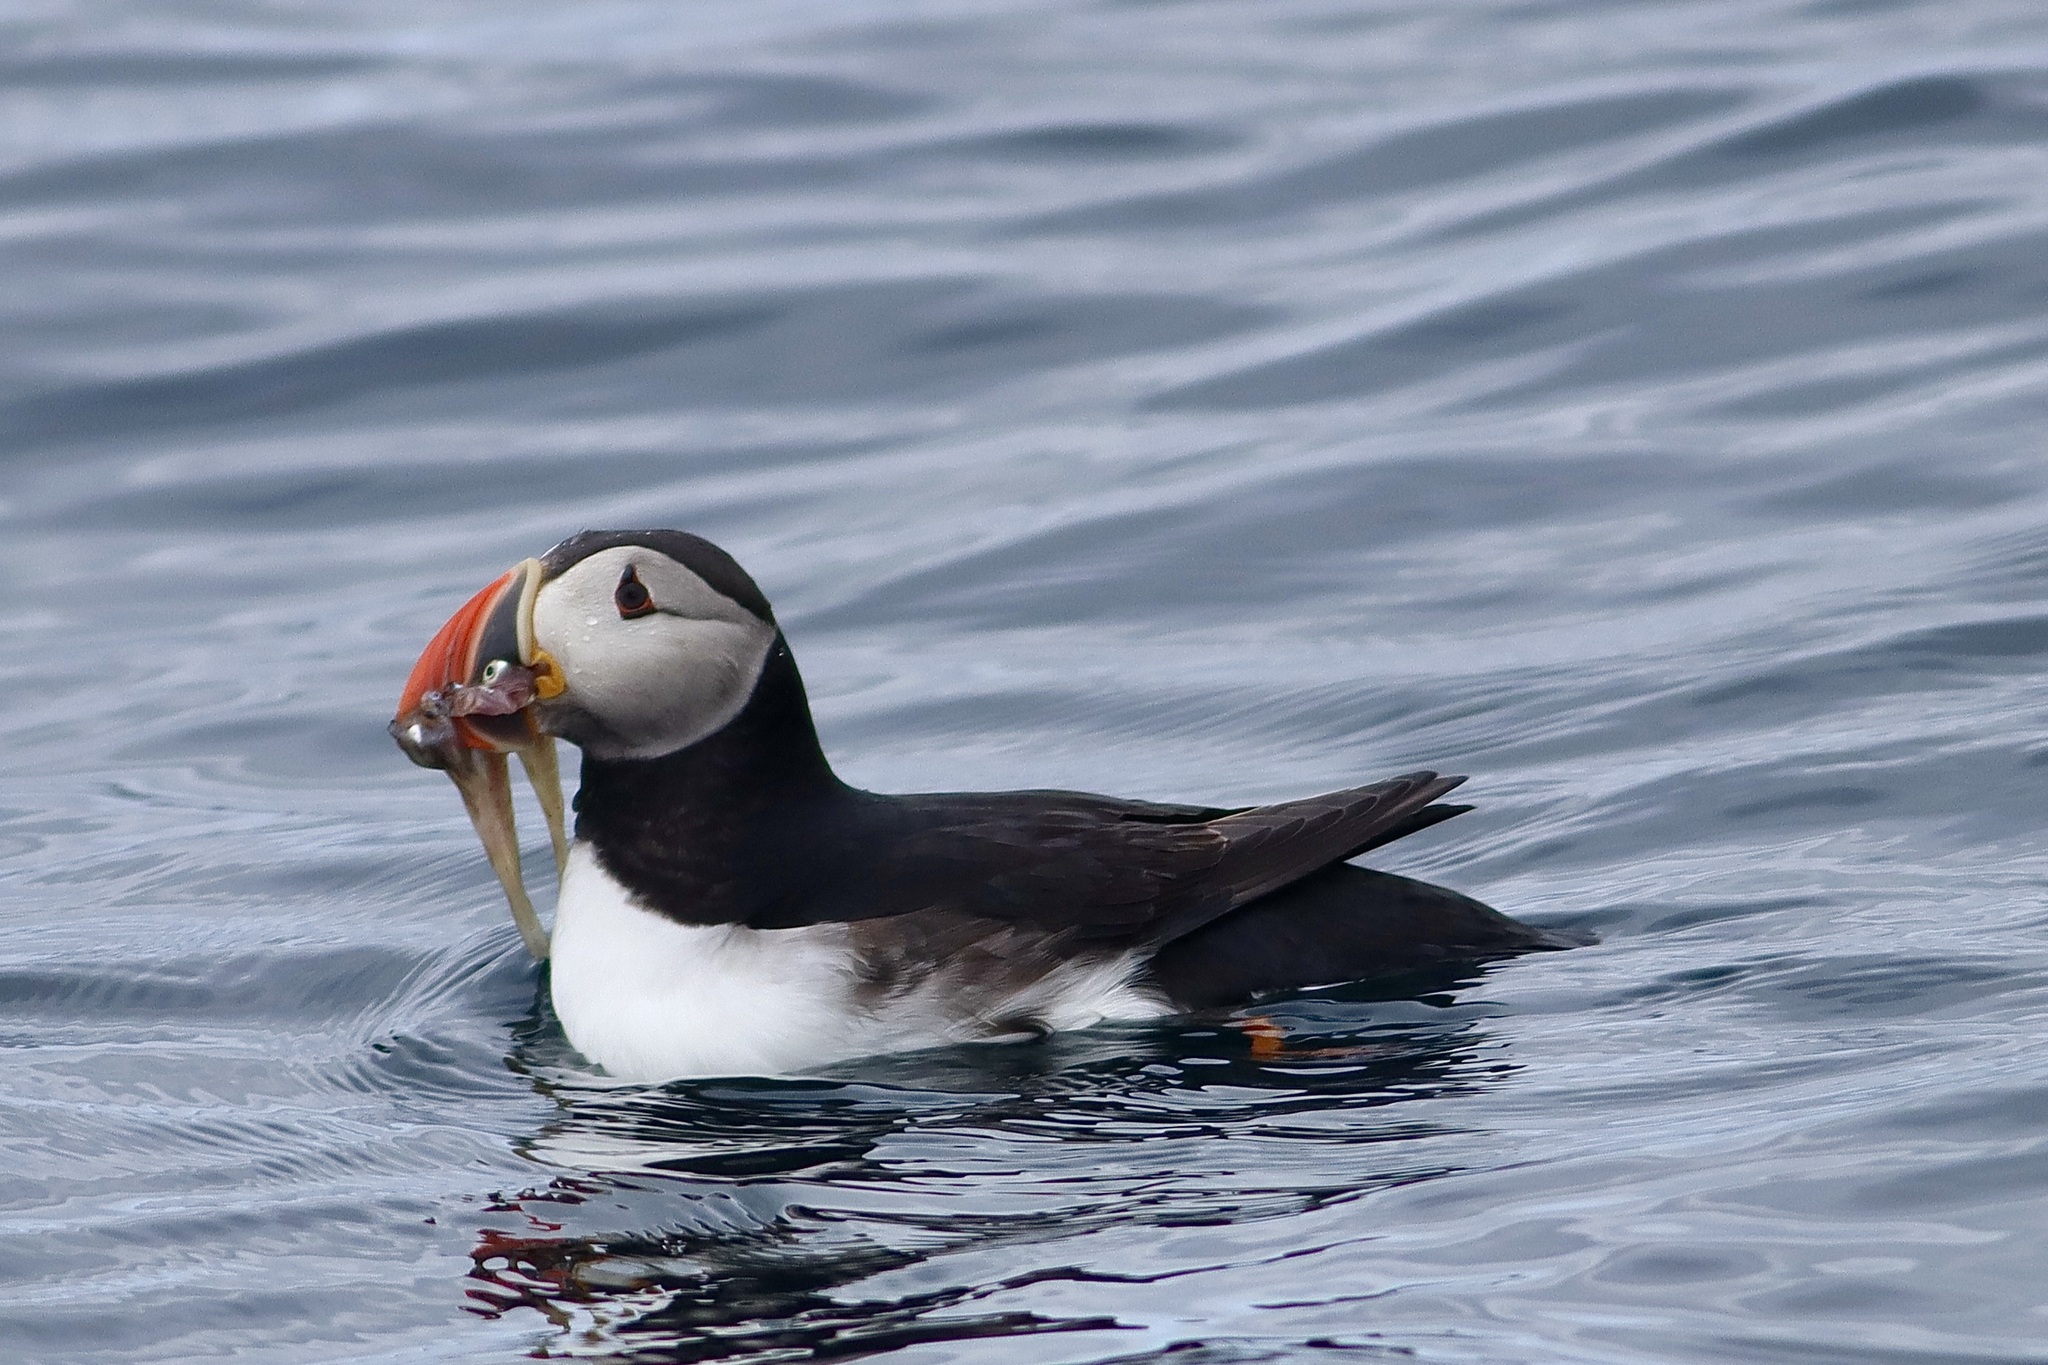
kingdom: Animalia
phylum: Chordata
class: Aves
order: Charadriiformes
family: Alcidae
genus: Fratercula
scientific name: Fratercula arctica
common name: Atlantic puffin
